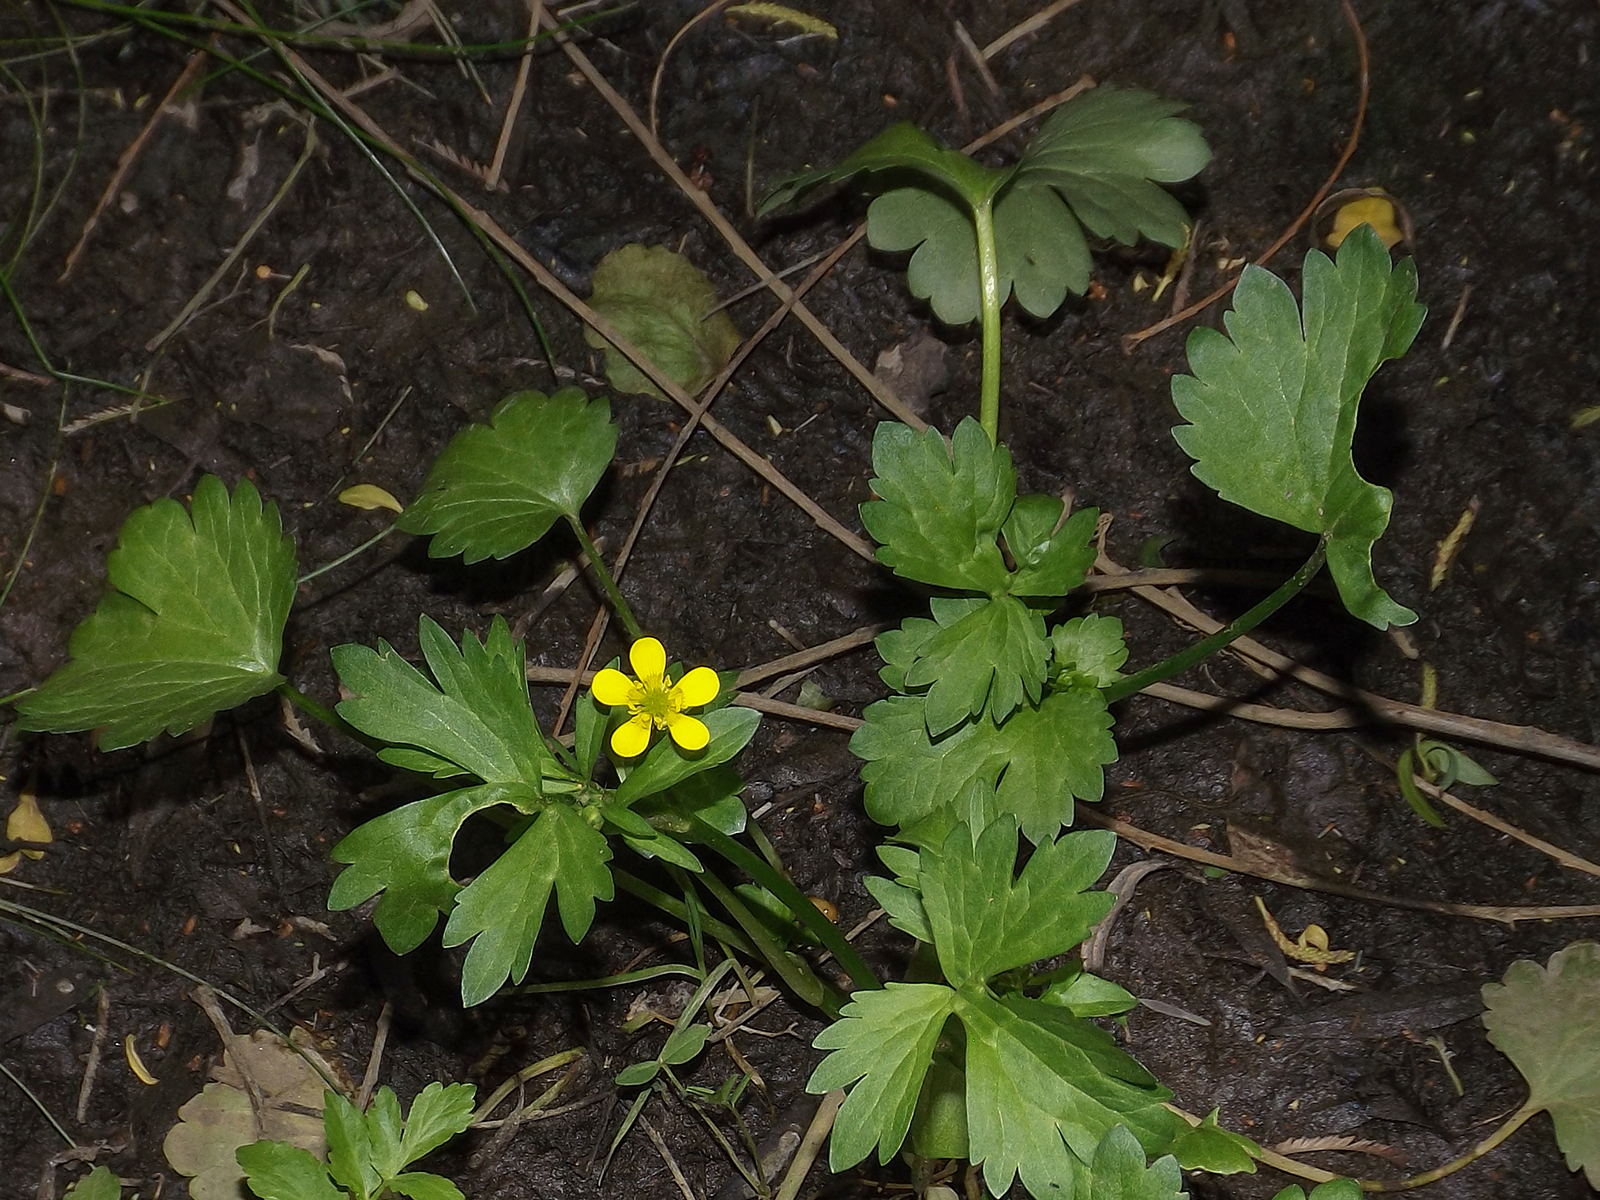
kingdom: Plantae
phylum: Tracheophyta
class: Magnoliopsida
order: Ranunculales
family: Ranunculaceae
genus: Ranunculus
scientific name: Ranunculus repens
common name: Creeping buttercup
